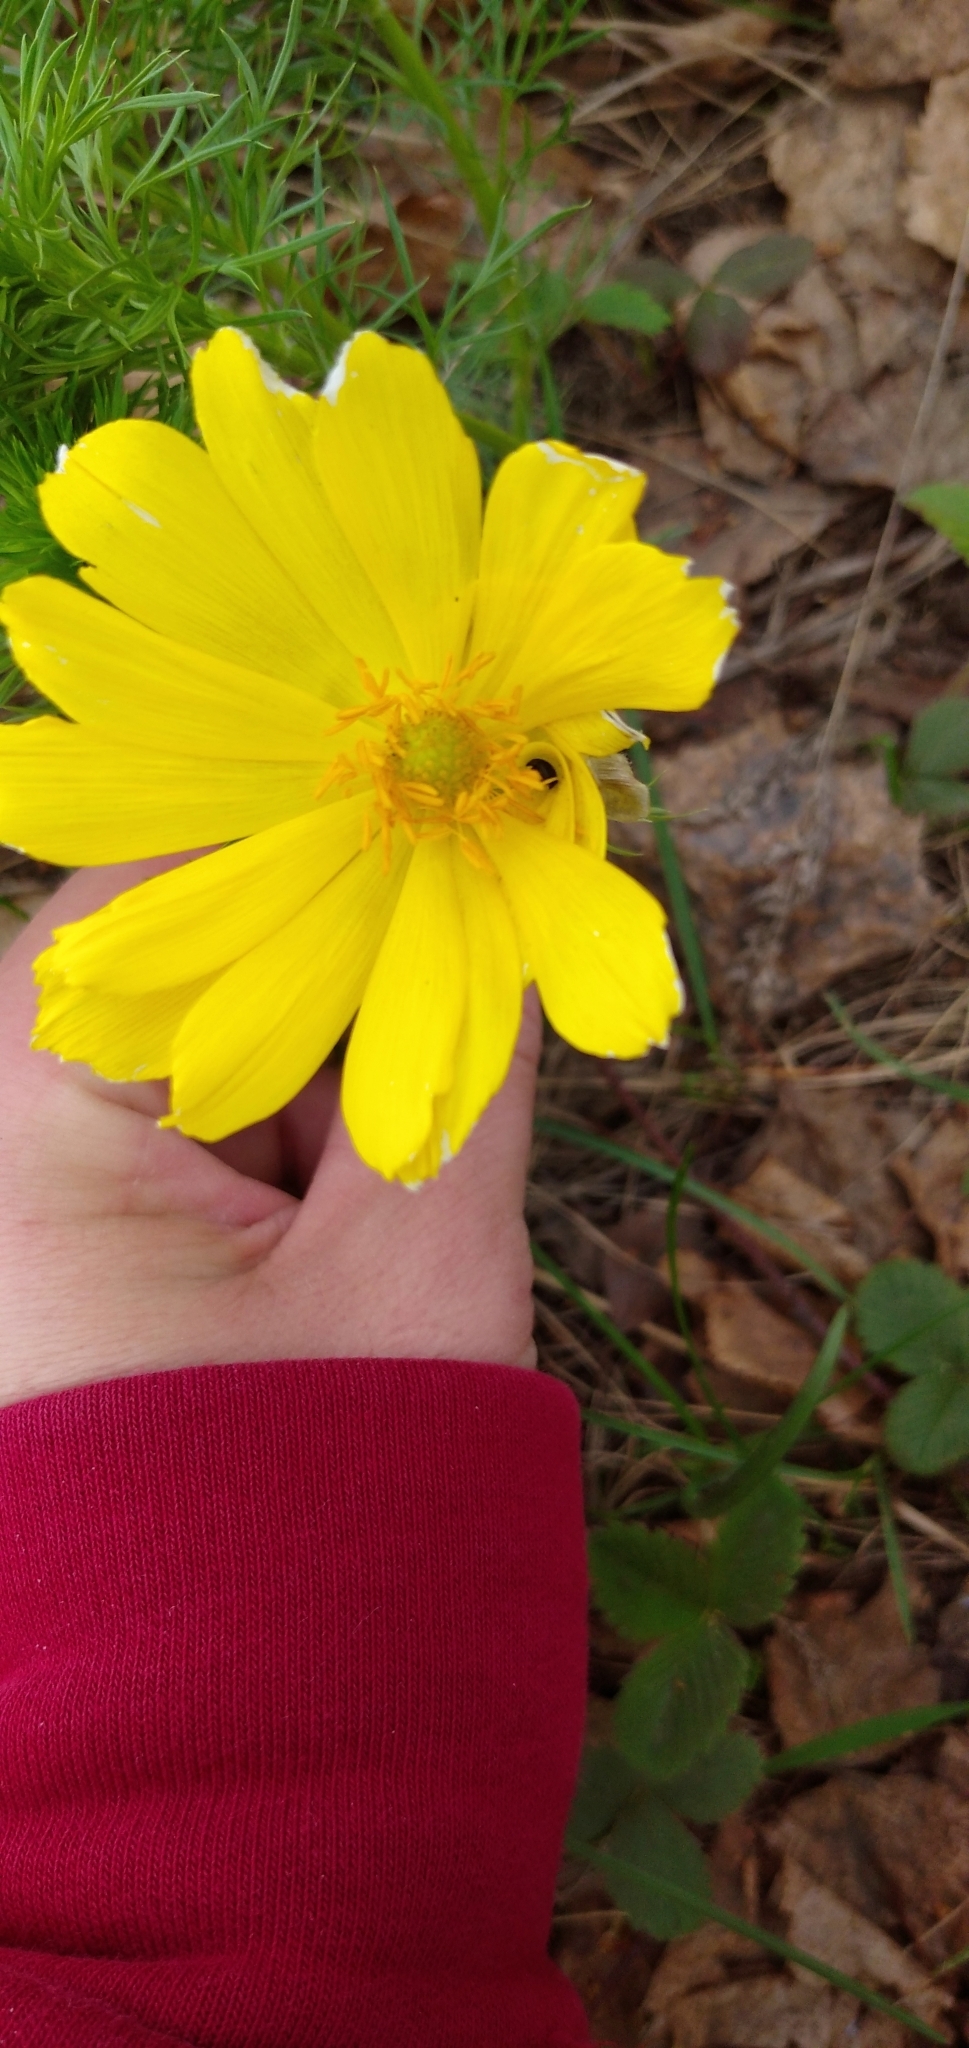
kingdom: Plantae
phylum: Tracheophyta
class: Magnoliopsida
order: Ranunculales
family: Ranunculaceae
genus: Adonis
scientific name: Adonis vernalis
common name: Yellow pheasants-eye
